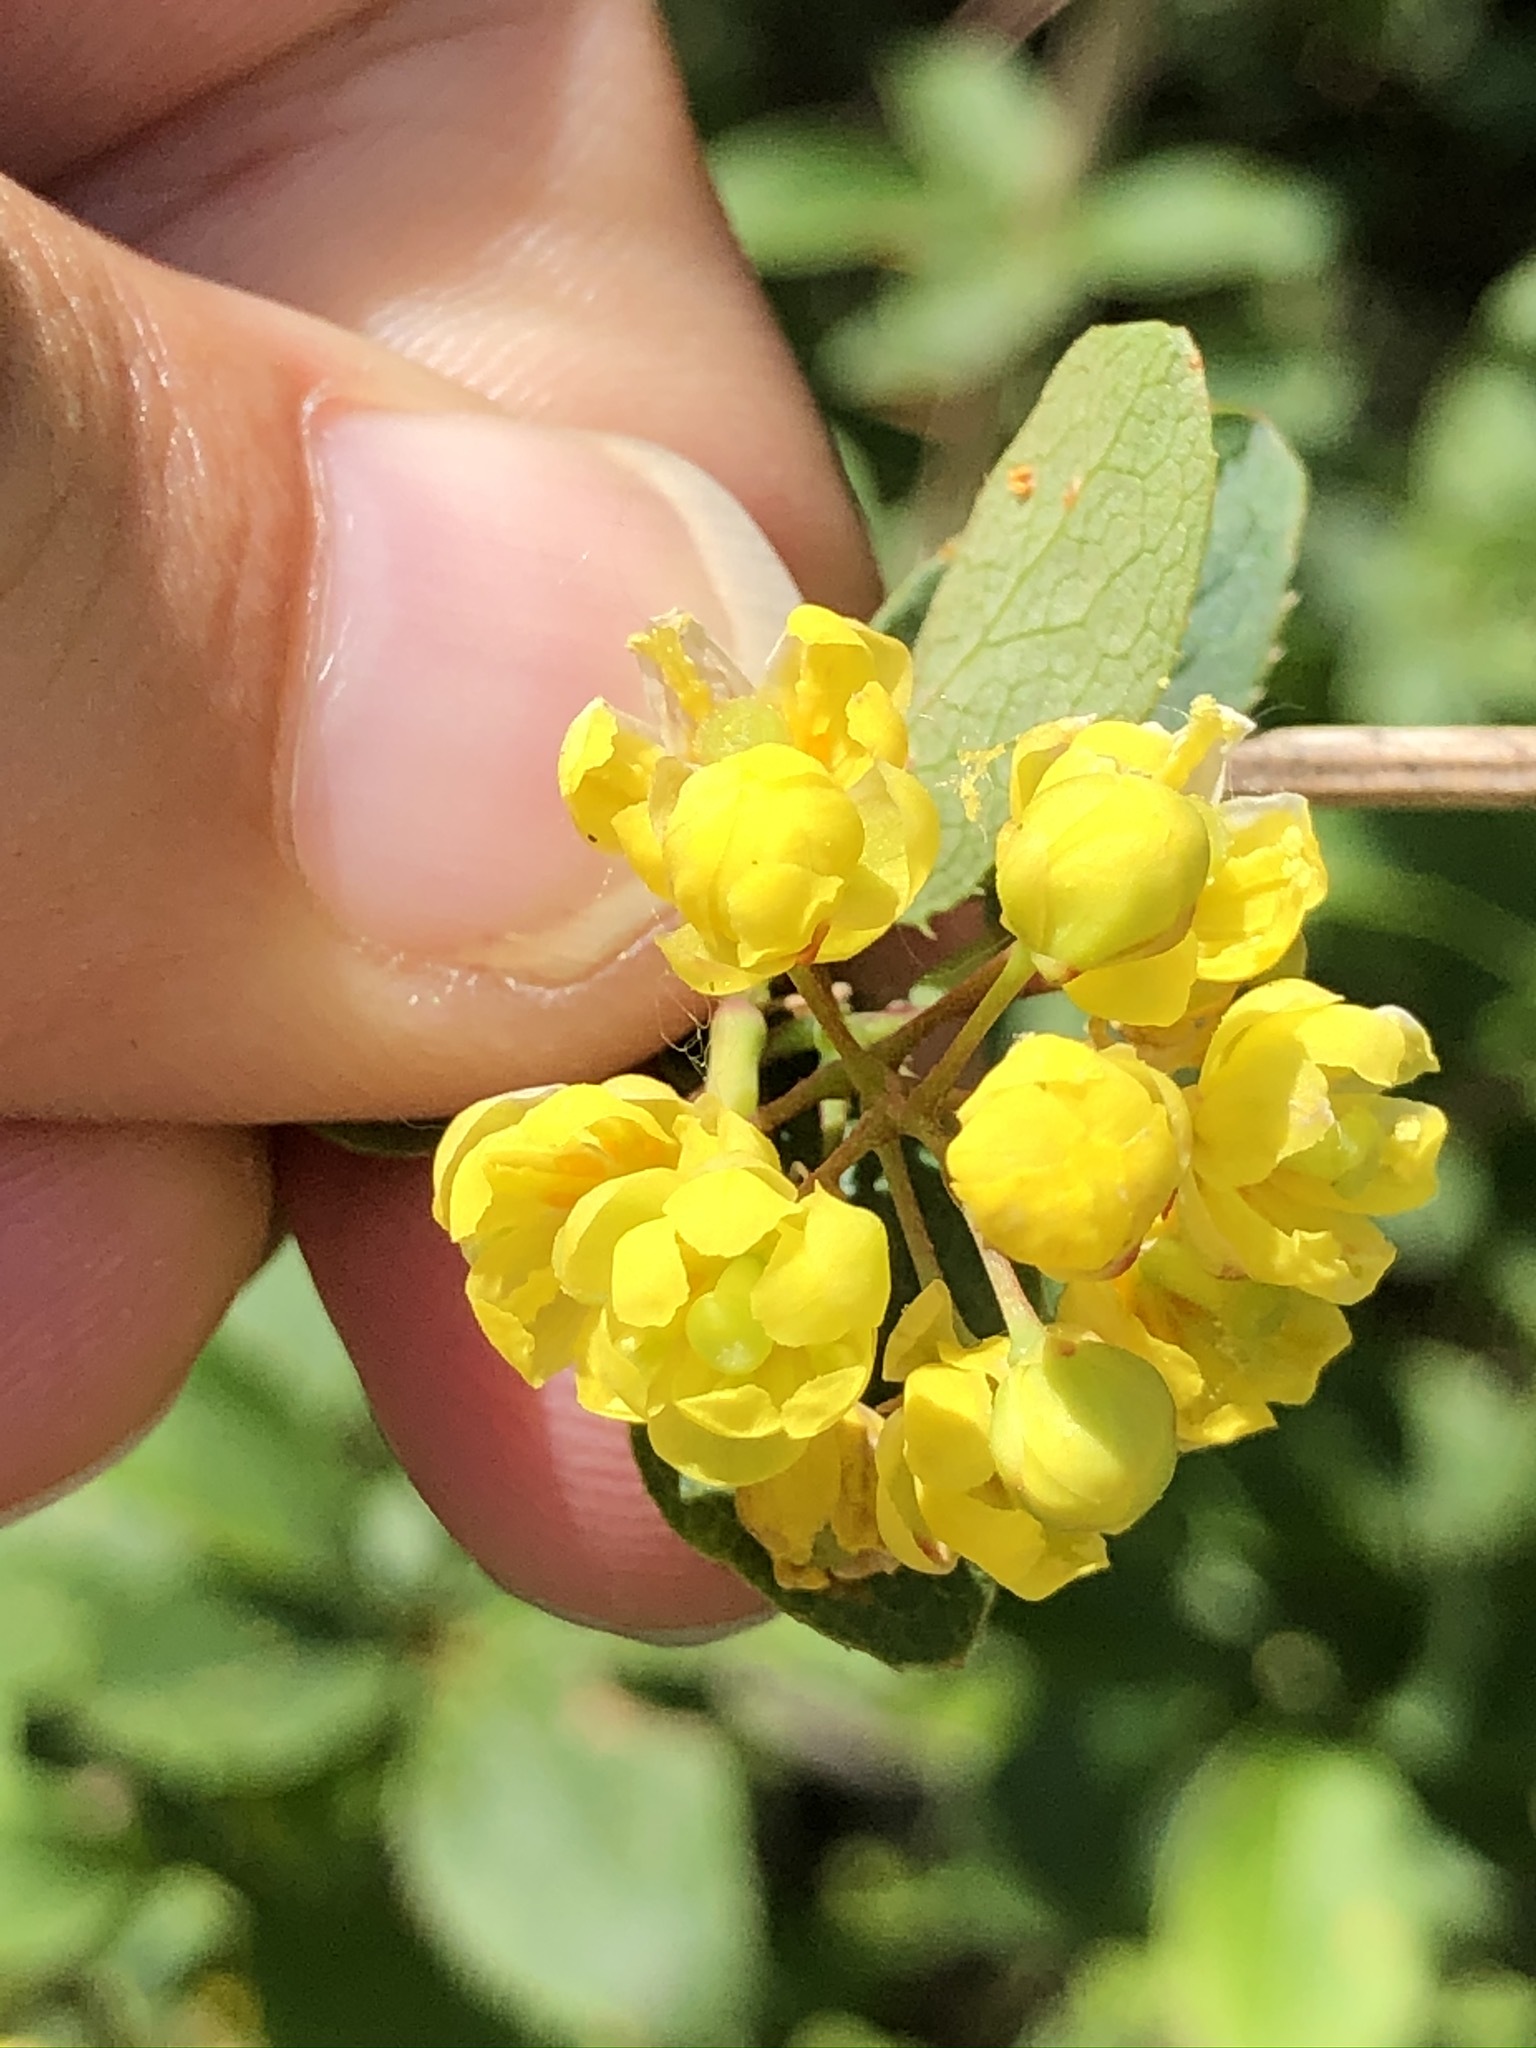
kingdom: Plantae
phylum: Tracheophyta
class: Magnoliopsida
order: Ranunculales
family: Berberidaceae
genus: Berberis
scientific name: Berberis vulgaris
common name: Barberry
